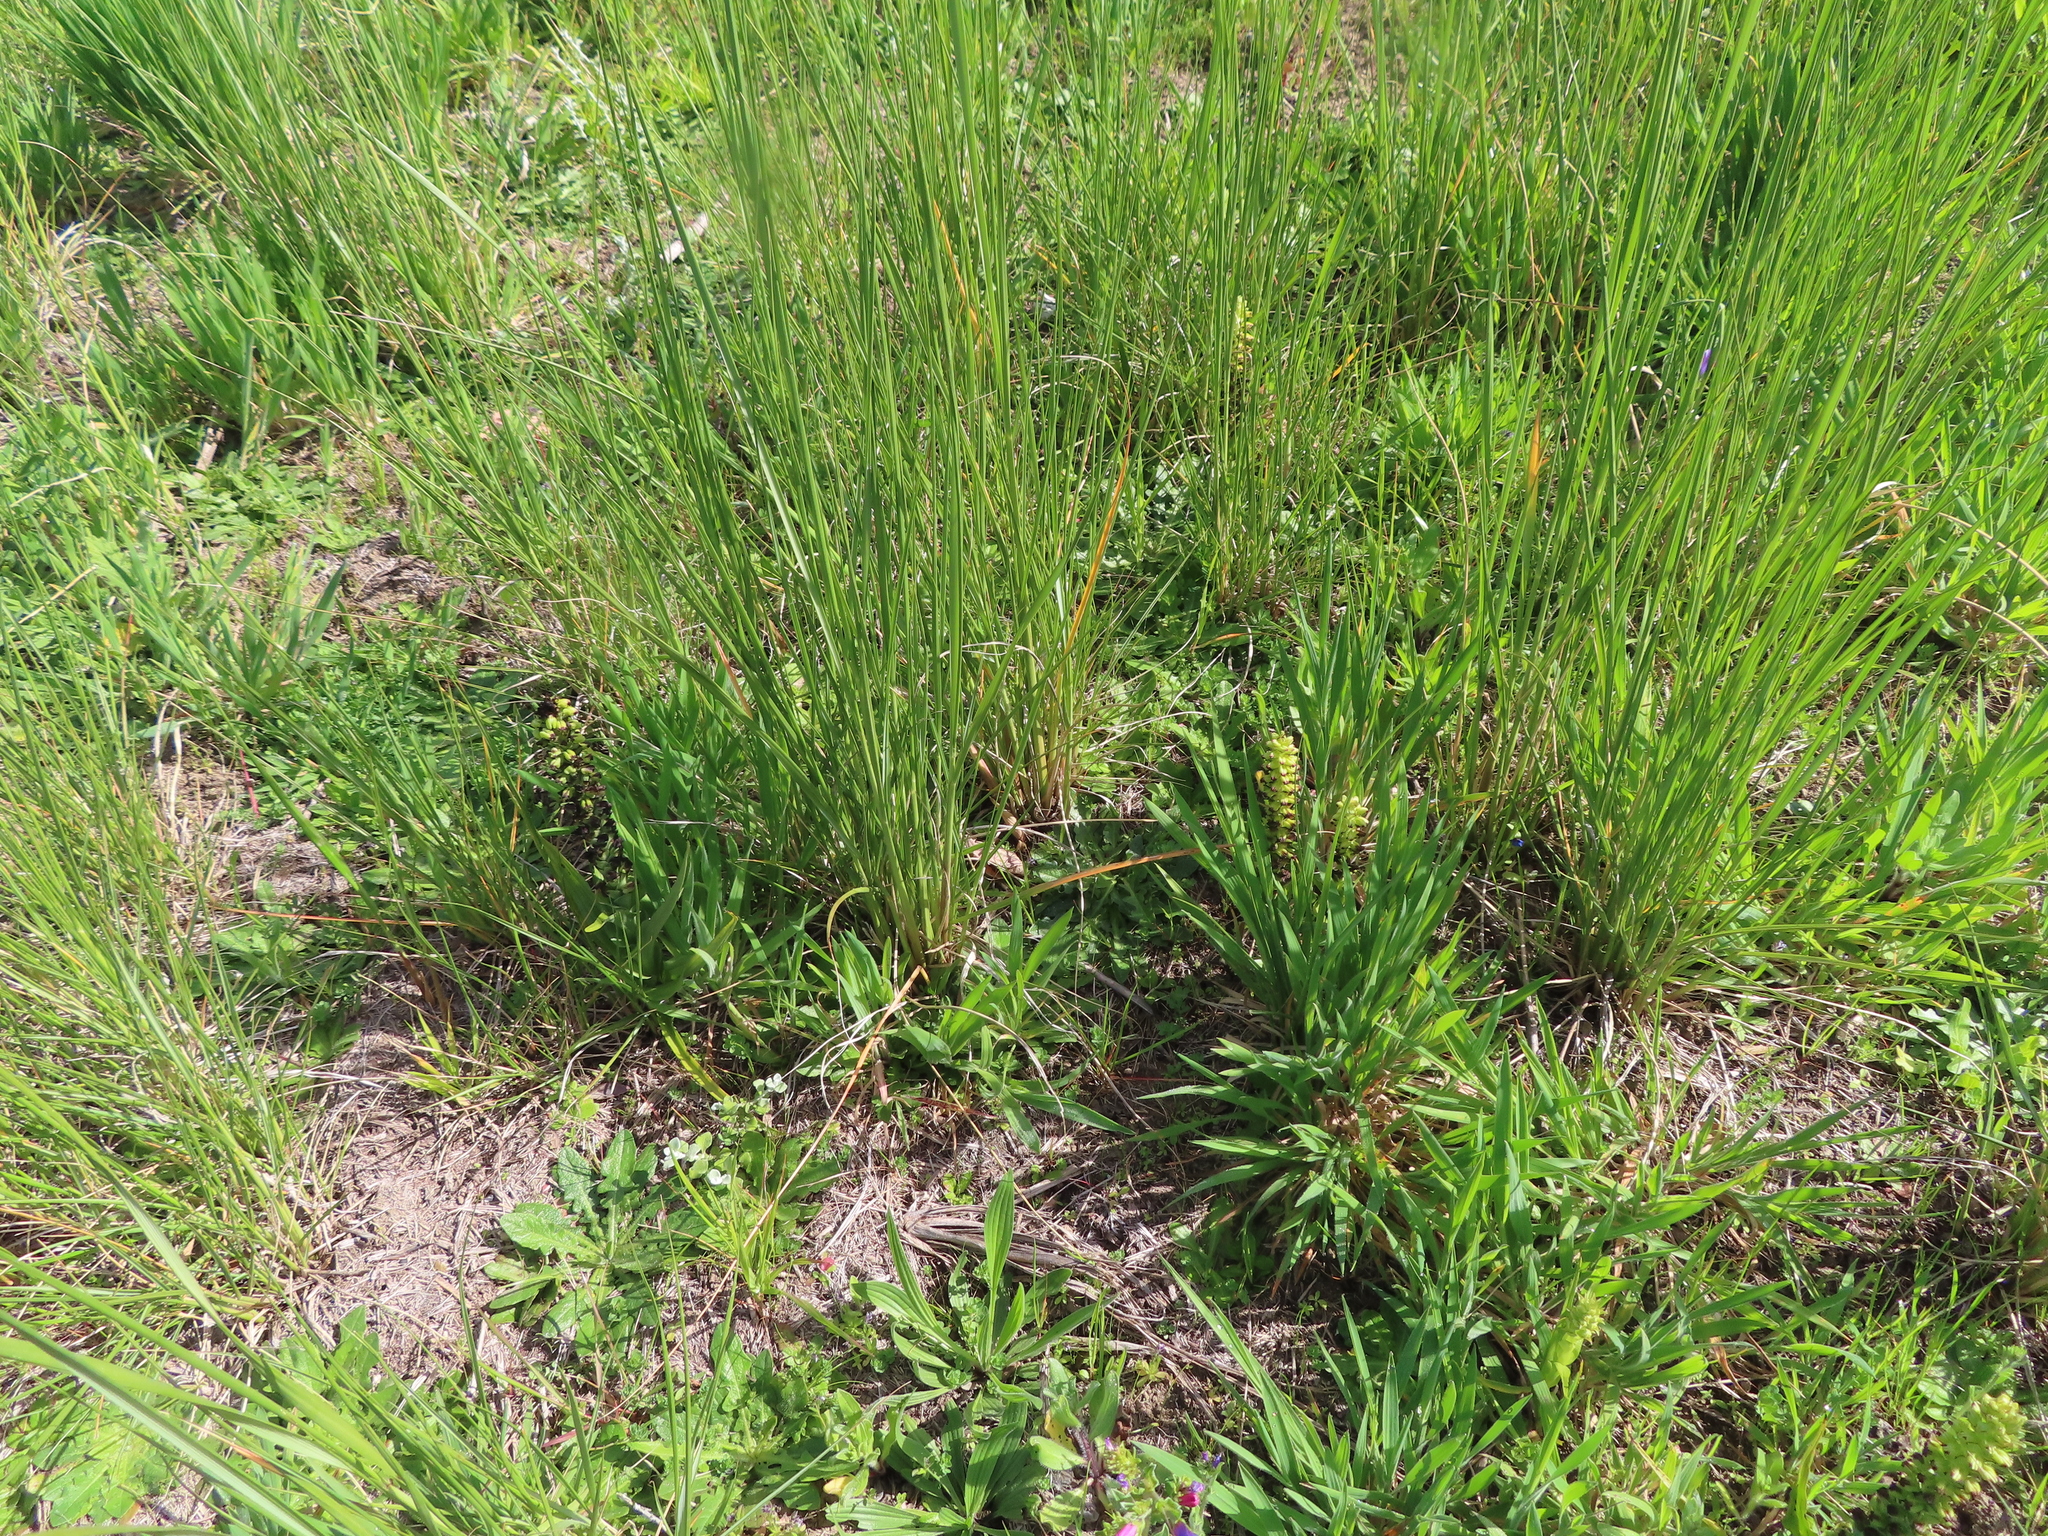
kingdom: Plantae
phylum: Tracheophyta
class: Liliopsida
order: Asparagales
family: Orchidaceae
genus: Corycium
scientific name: Corycium orobanchoides
